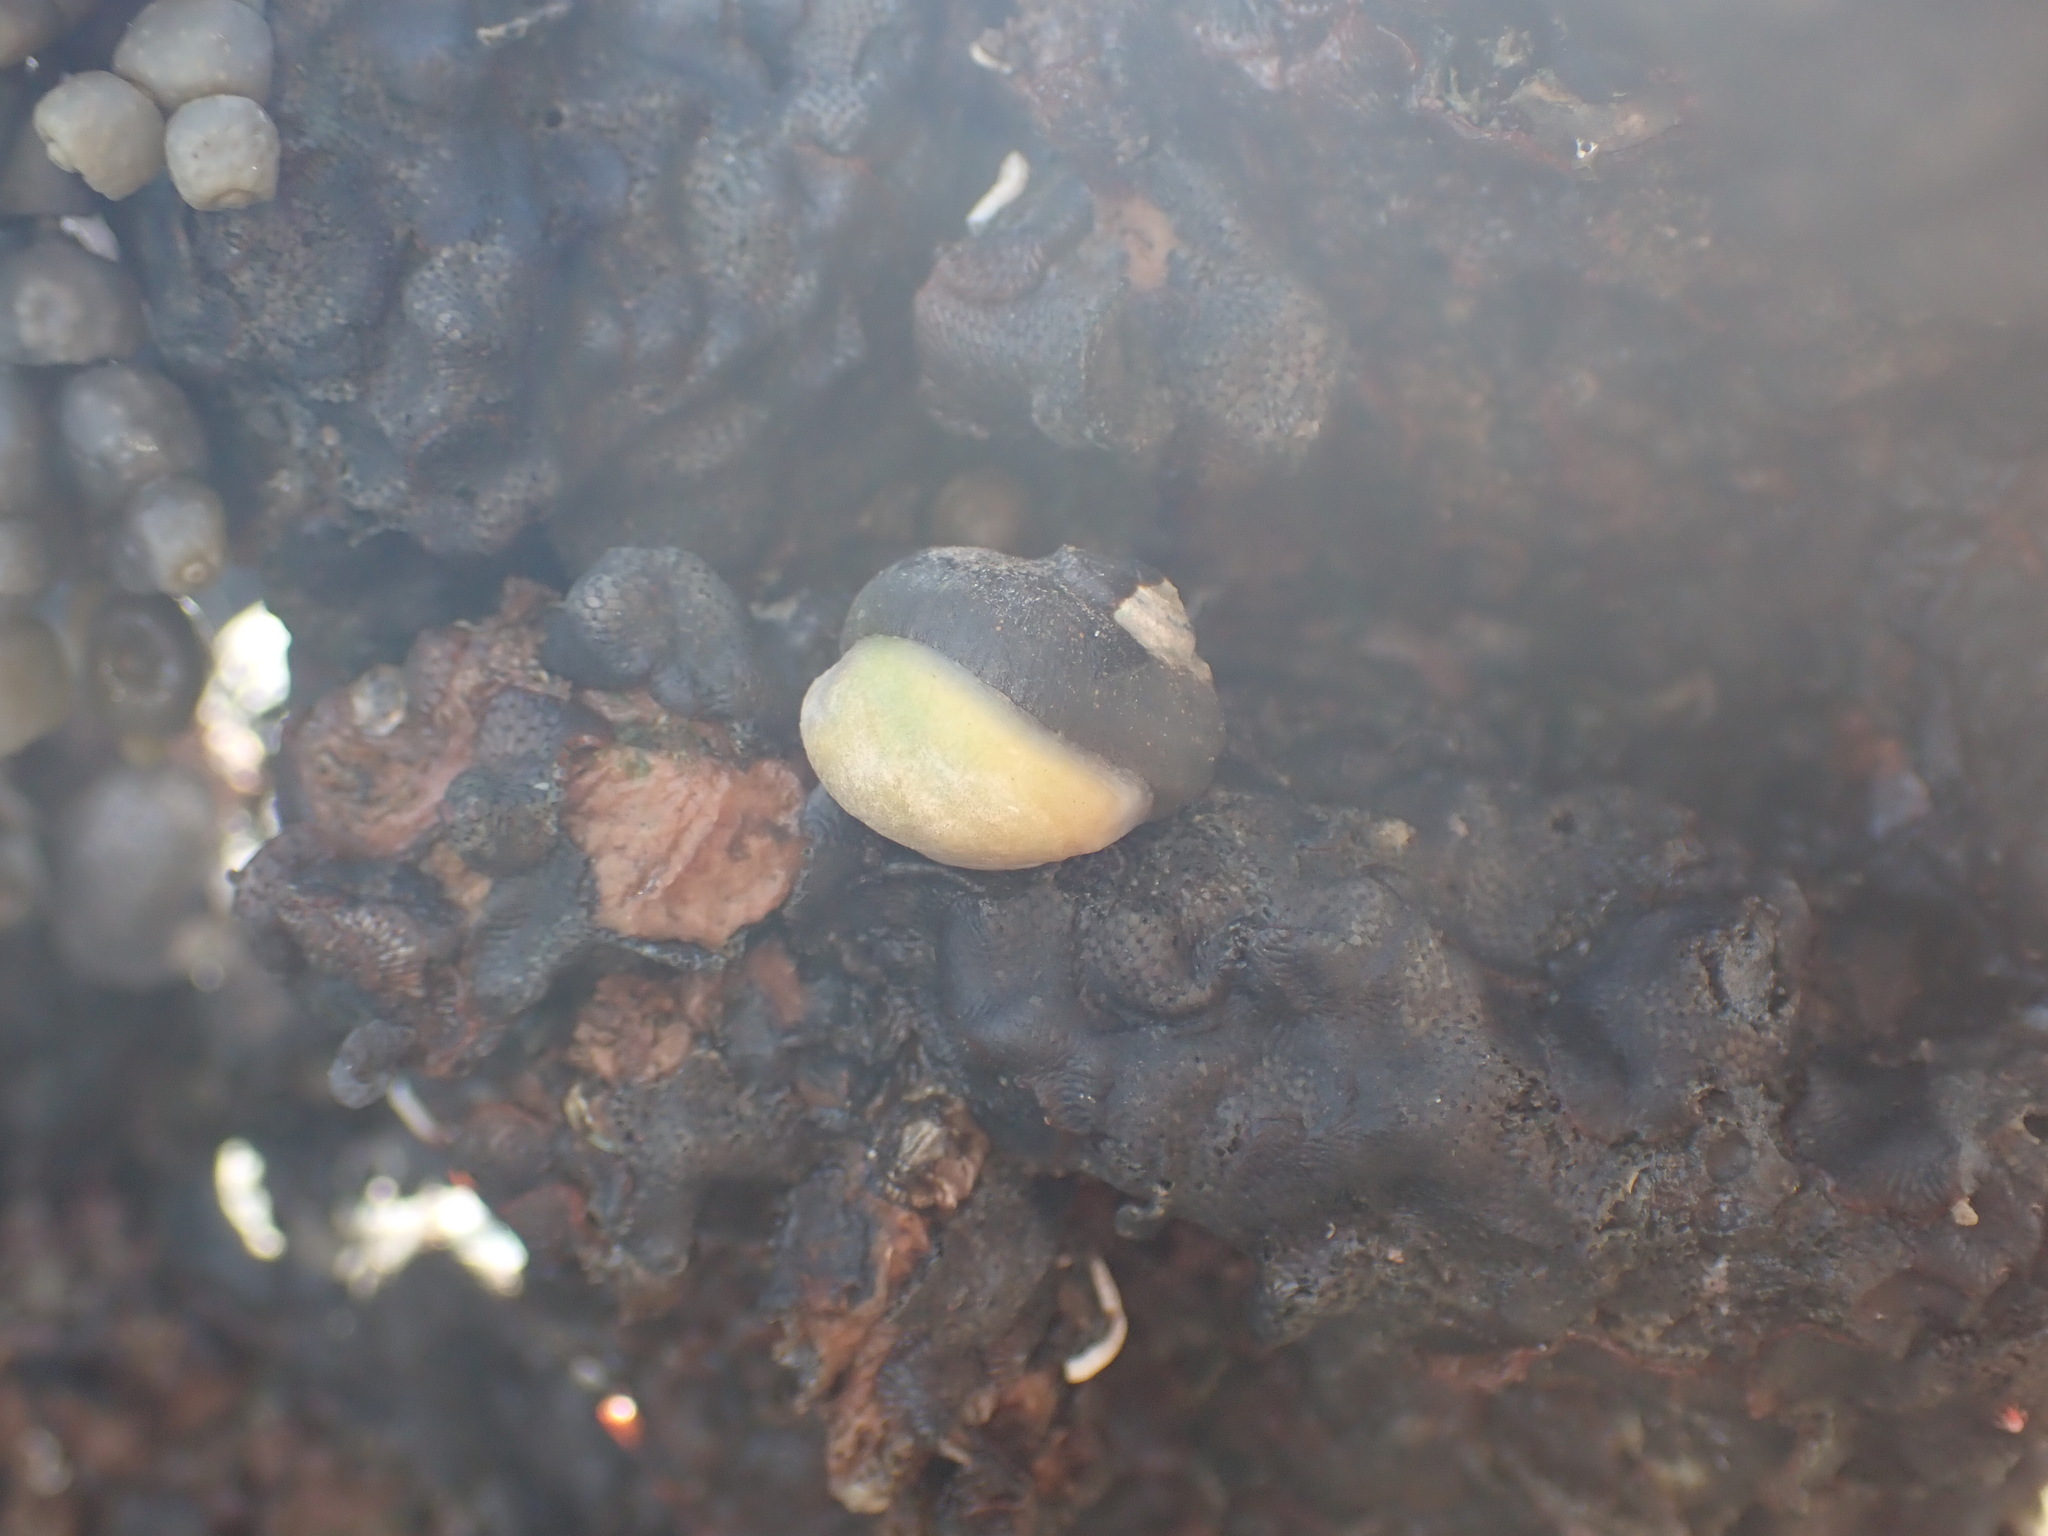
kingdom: Animalia
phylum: Mollusca
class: Gastropoda
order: Littorinimorpha
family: Calyptraeidae
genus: Maoricrypta
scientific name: Maoricrypta monoxyla
